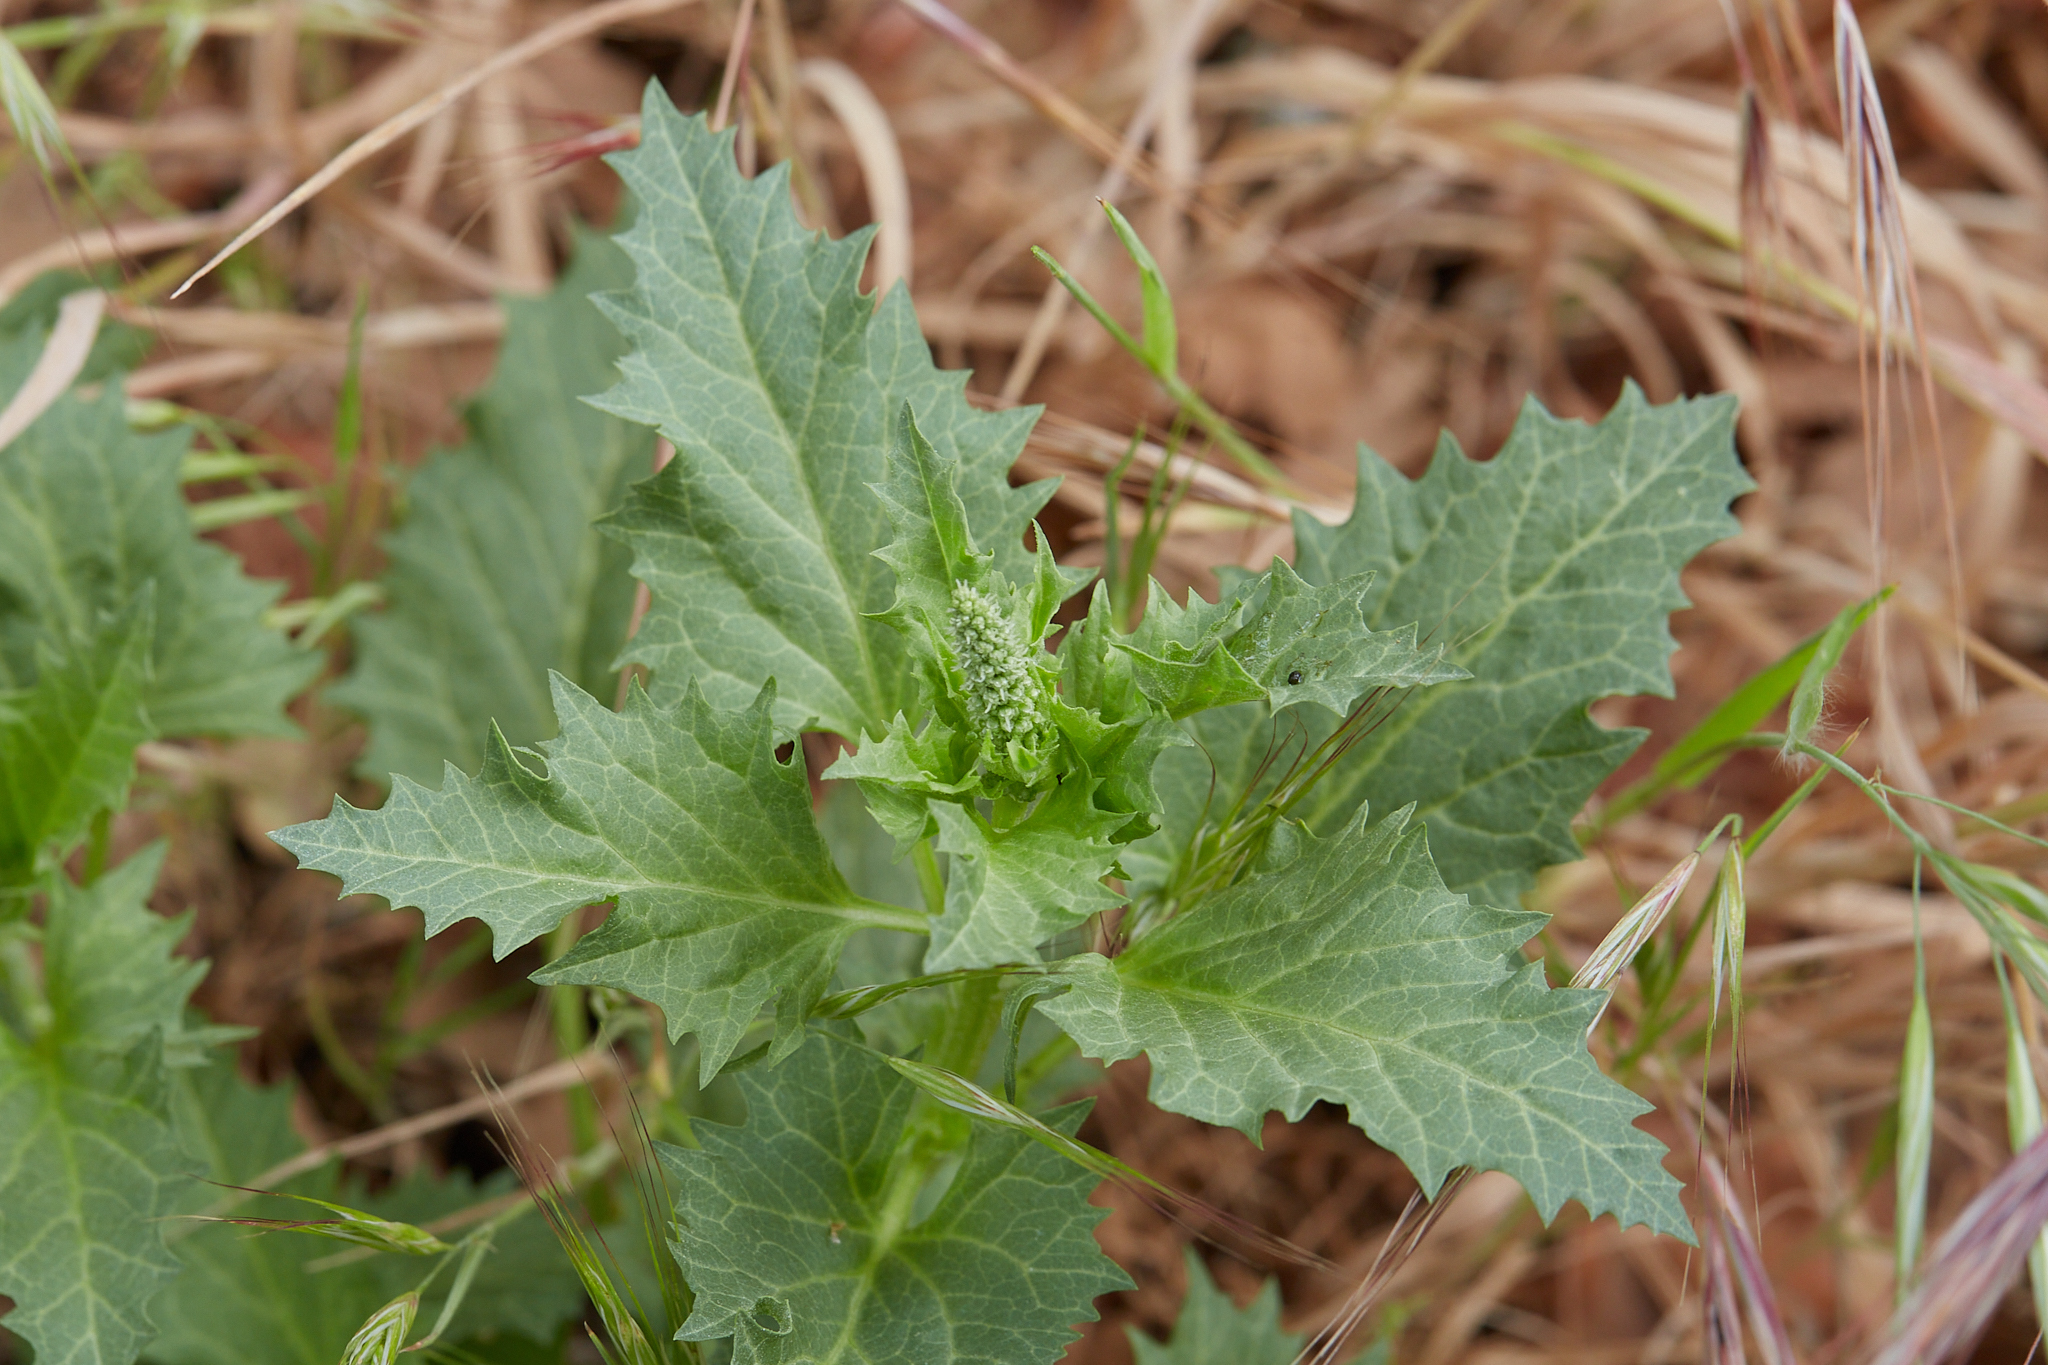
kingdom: Plantae
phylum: Tracheophyta
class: Magnoliopsida
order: Caryophyllales
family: Amaranthaceae
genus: Blitum
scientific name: Blitum californicum
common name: California goosefoot
